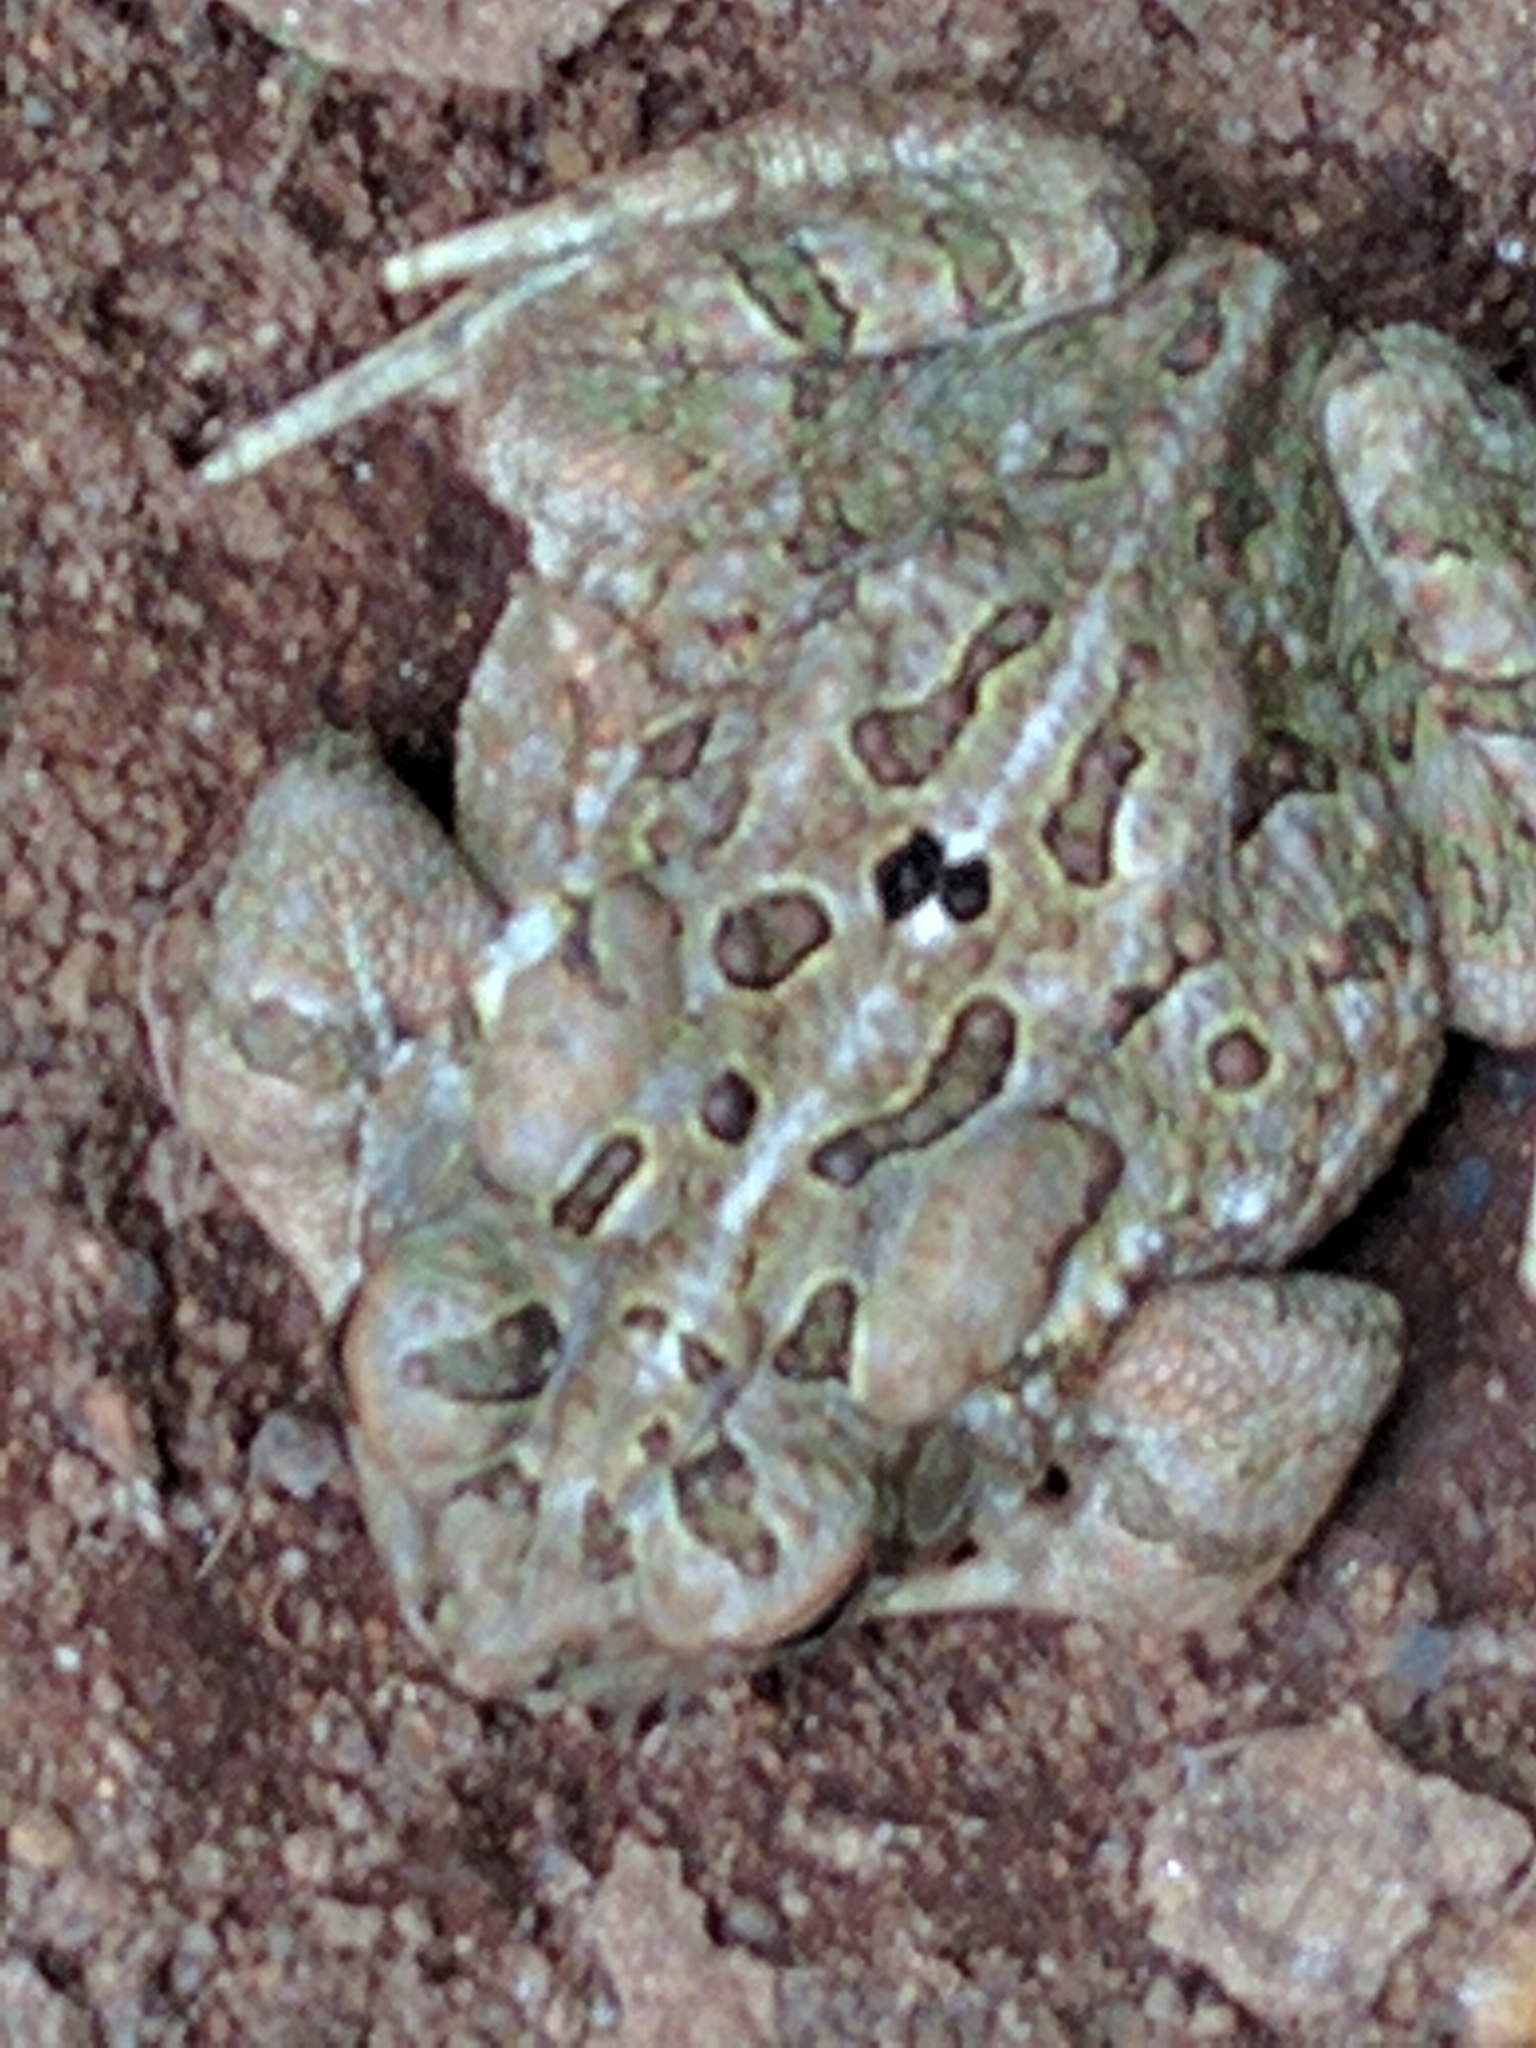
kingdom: Animalia
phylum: Chordata
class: Amphibia
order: Anura
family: Bufonidae
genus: Anaxyrus
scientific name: Anaxyrus fowleri
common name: Fowler's toad
